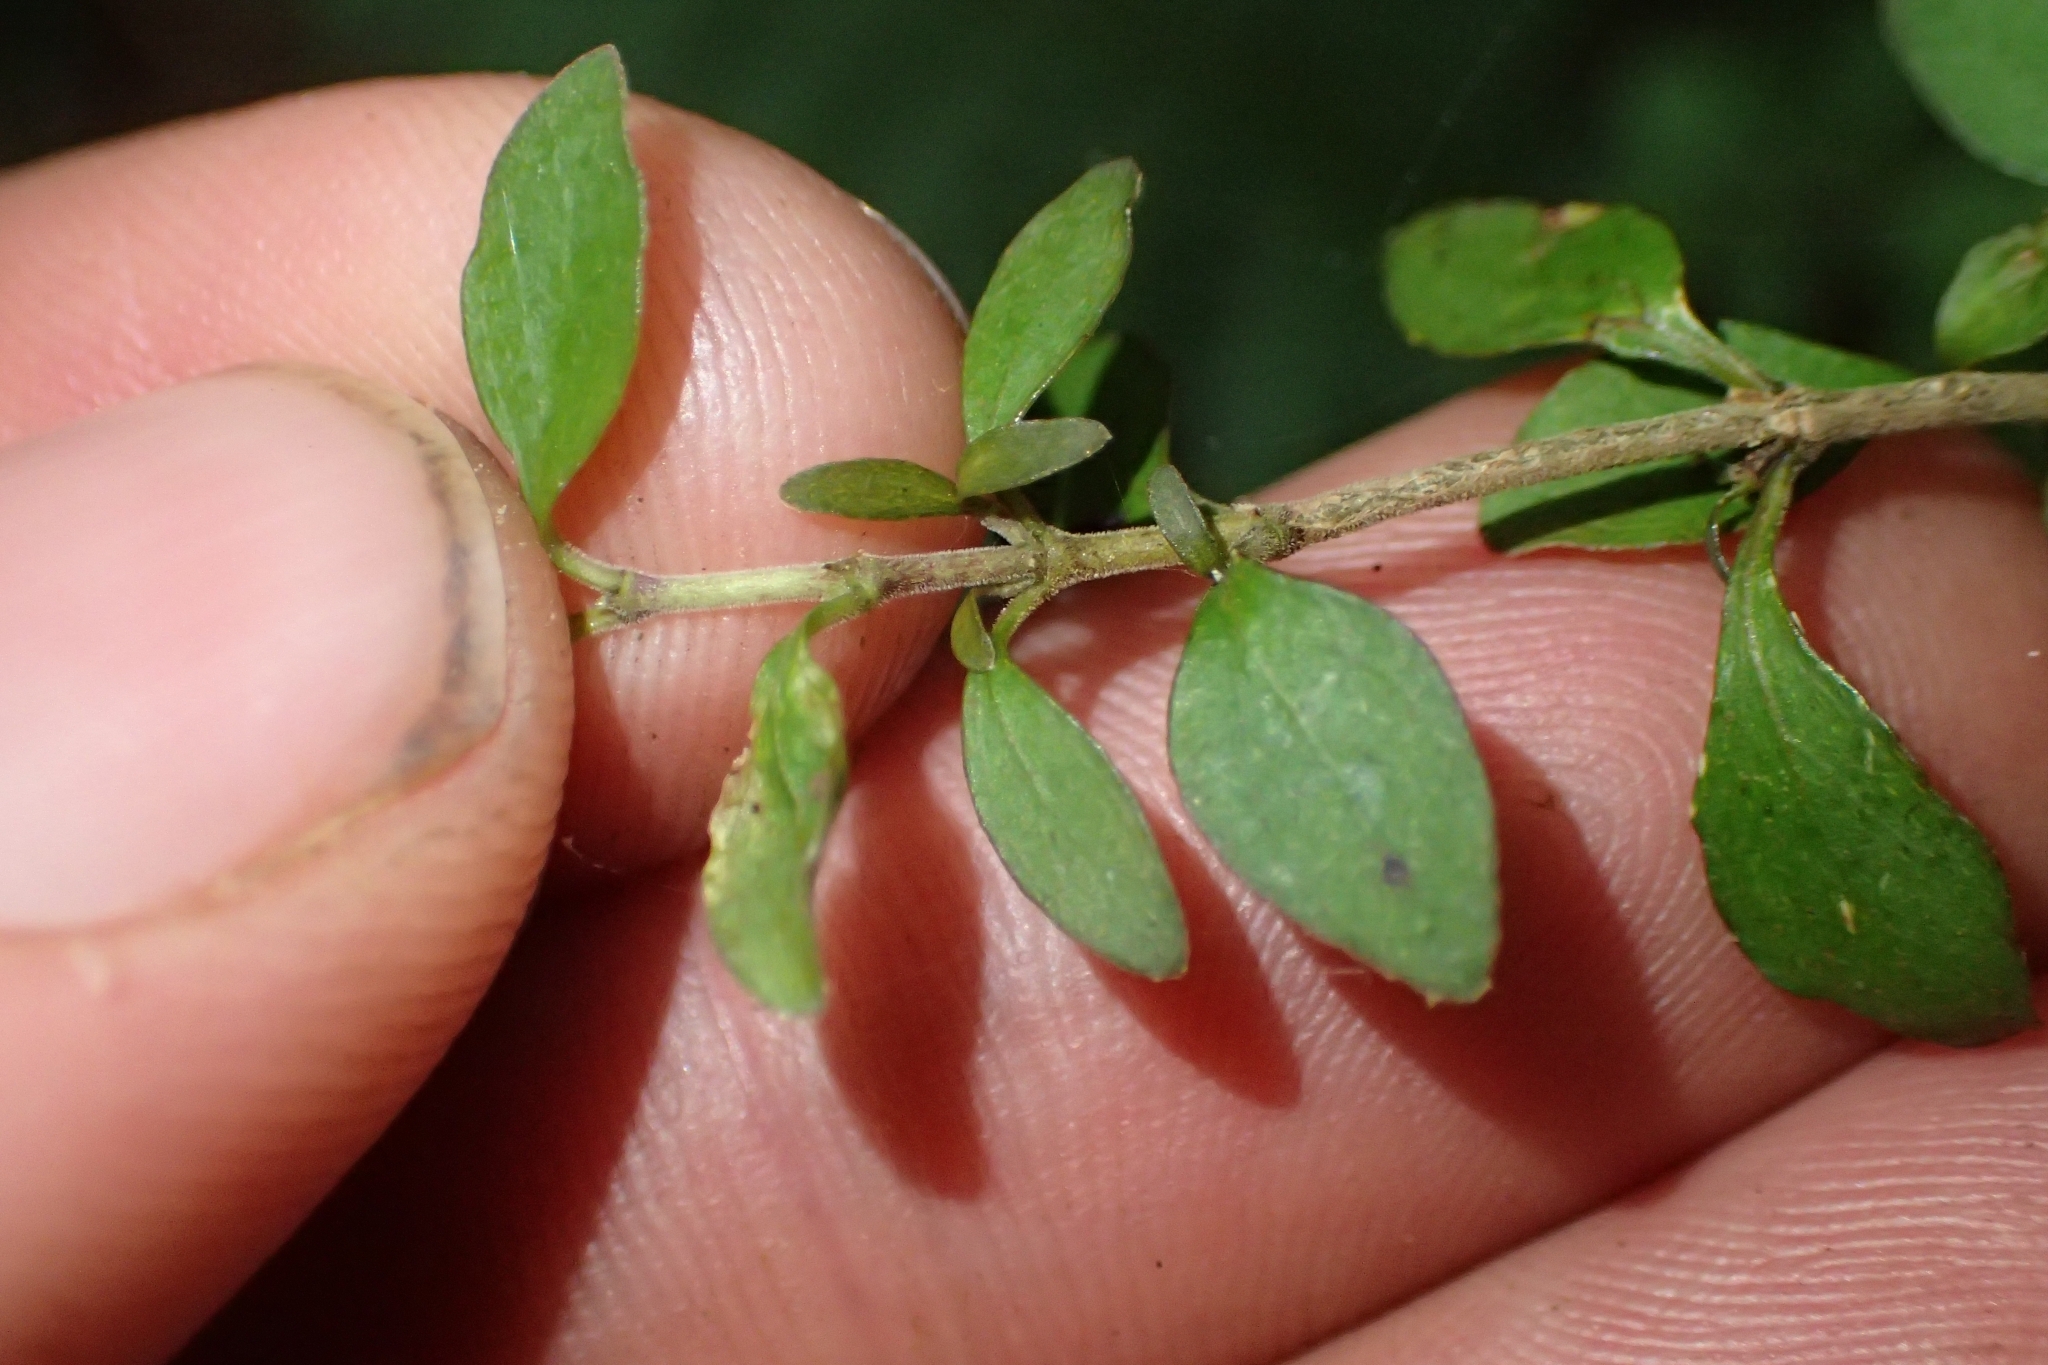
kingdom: Plantae
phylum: Tracheophyta
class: Magnoliopsida
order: Gentianales
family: Rubiaceae
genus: Coprosma
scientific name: Coprosma rhamnoides
